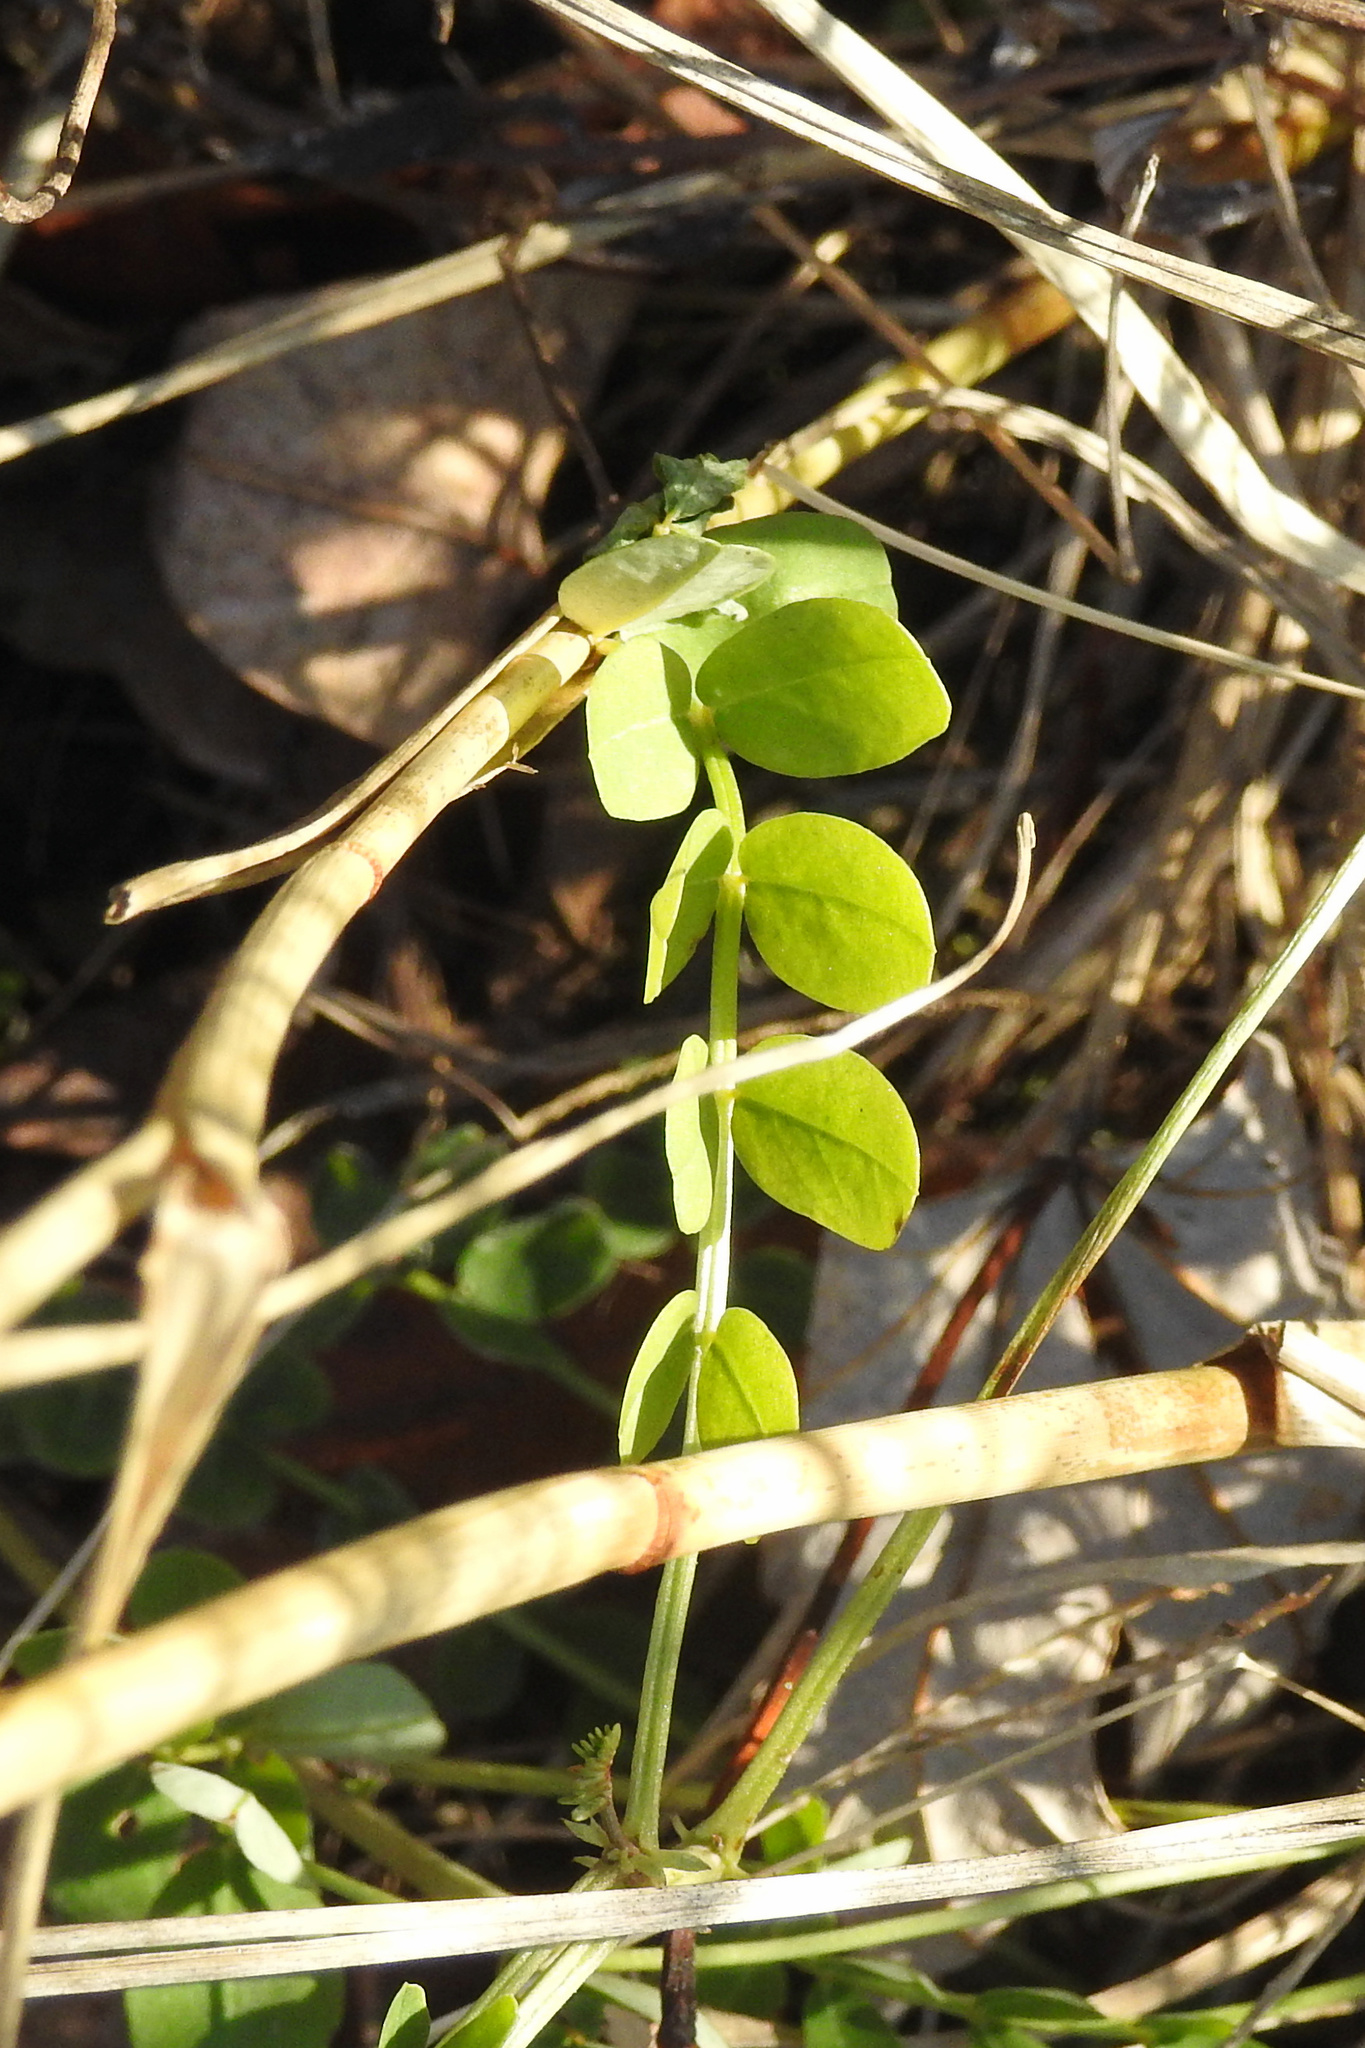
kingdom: Plantae
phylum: Tracheophyta
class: Magnoliopsida
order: Fabales
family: Fabaceae
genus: Coronilla
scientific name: Coronilla varia
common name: Crownvetch
